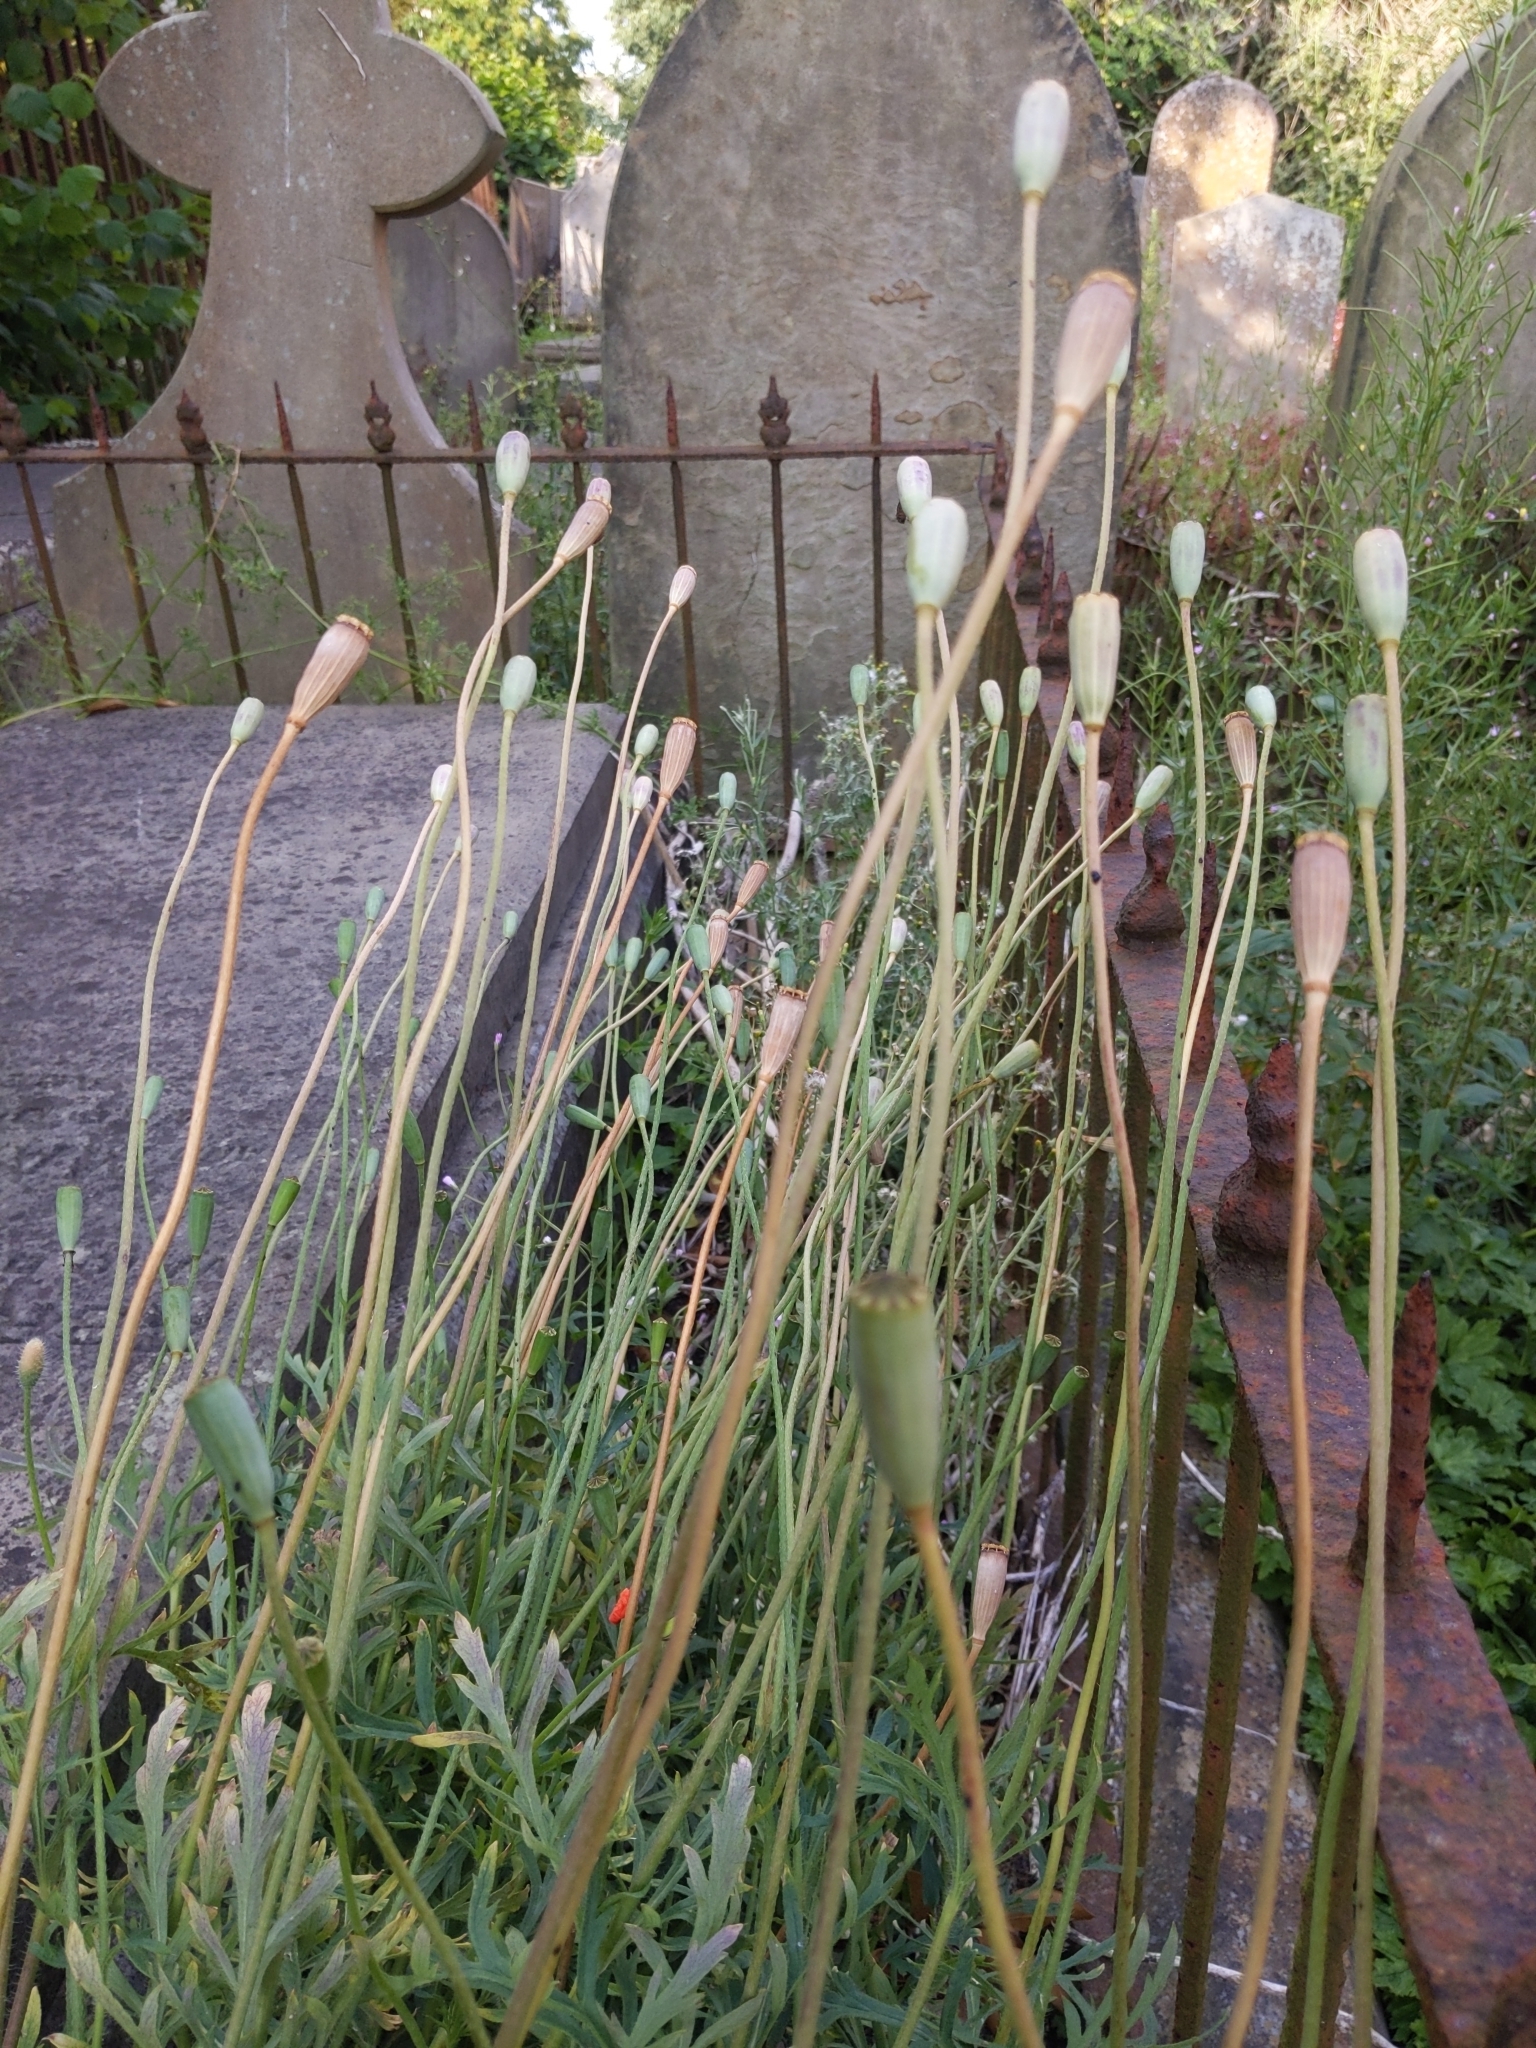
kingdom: Plantae
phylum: Tracheophyta
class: Magnoliopsida
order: Ranunculales
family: Papaveraceae
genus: Papaver
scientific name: Papaver dubium
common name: Long-headed poppy
